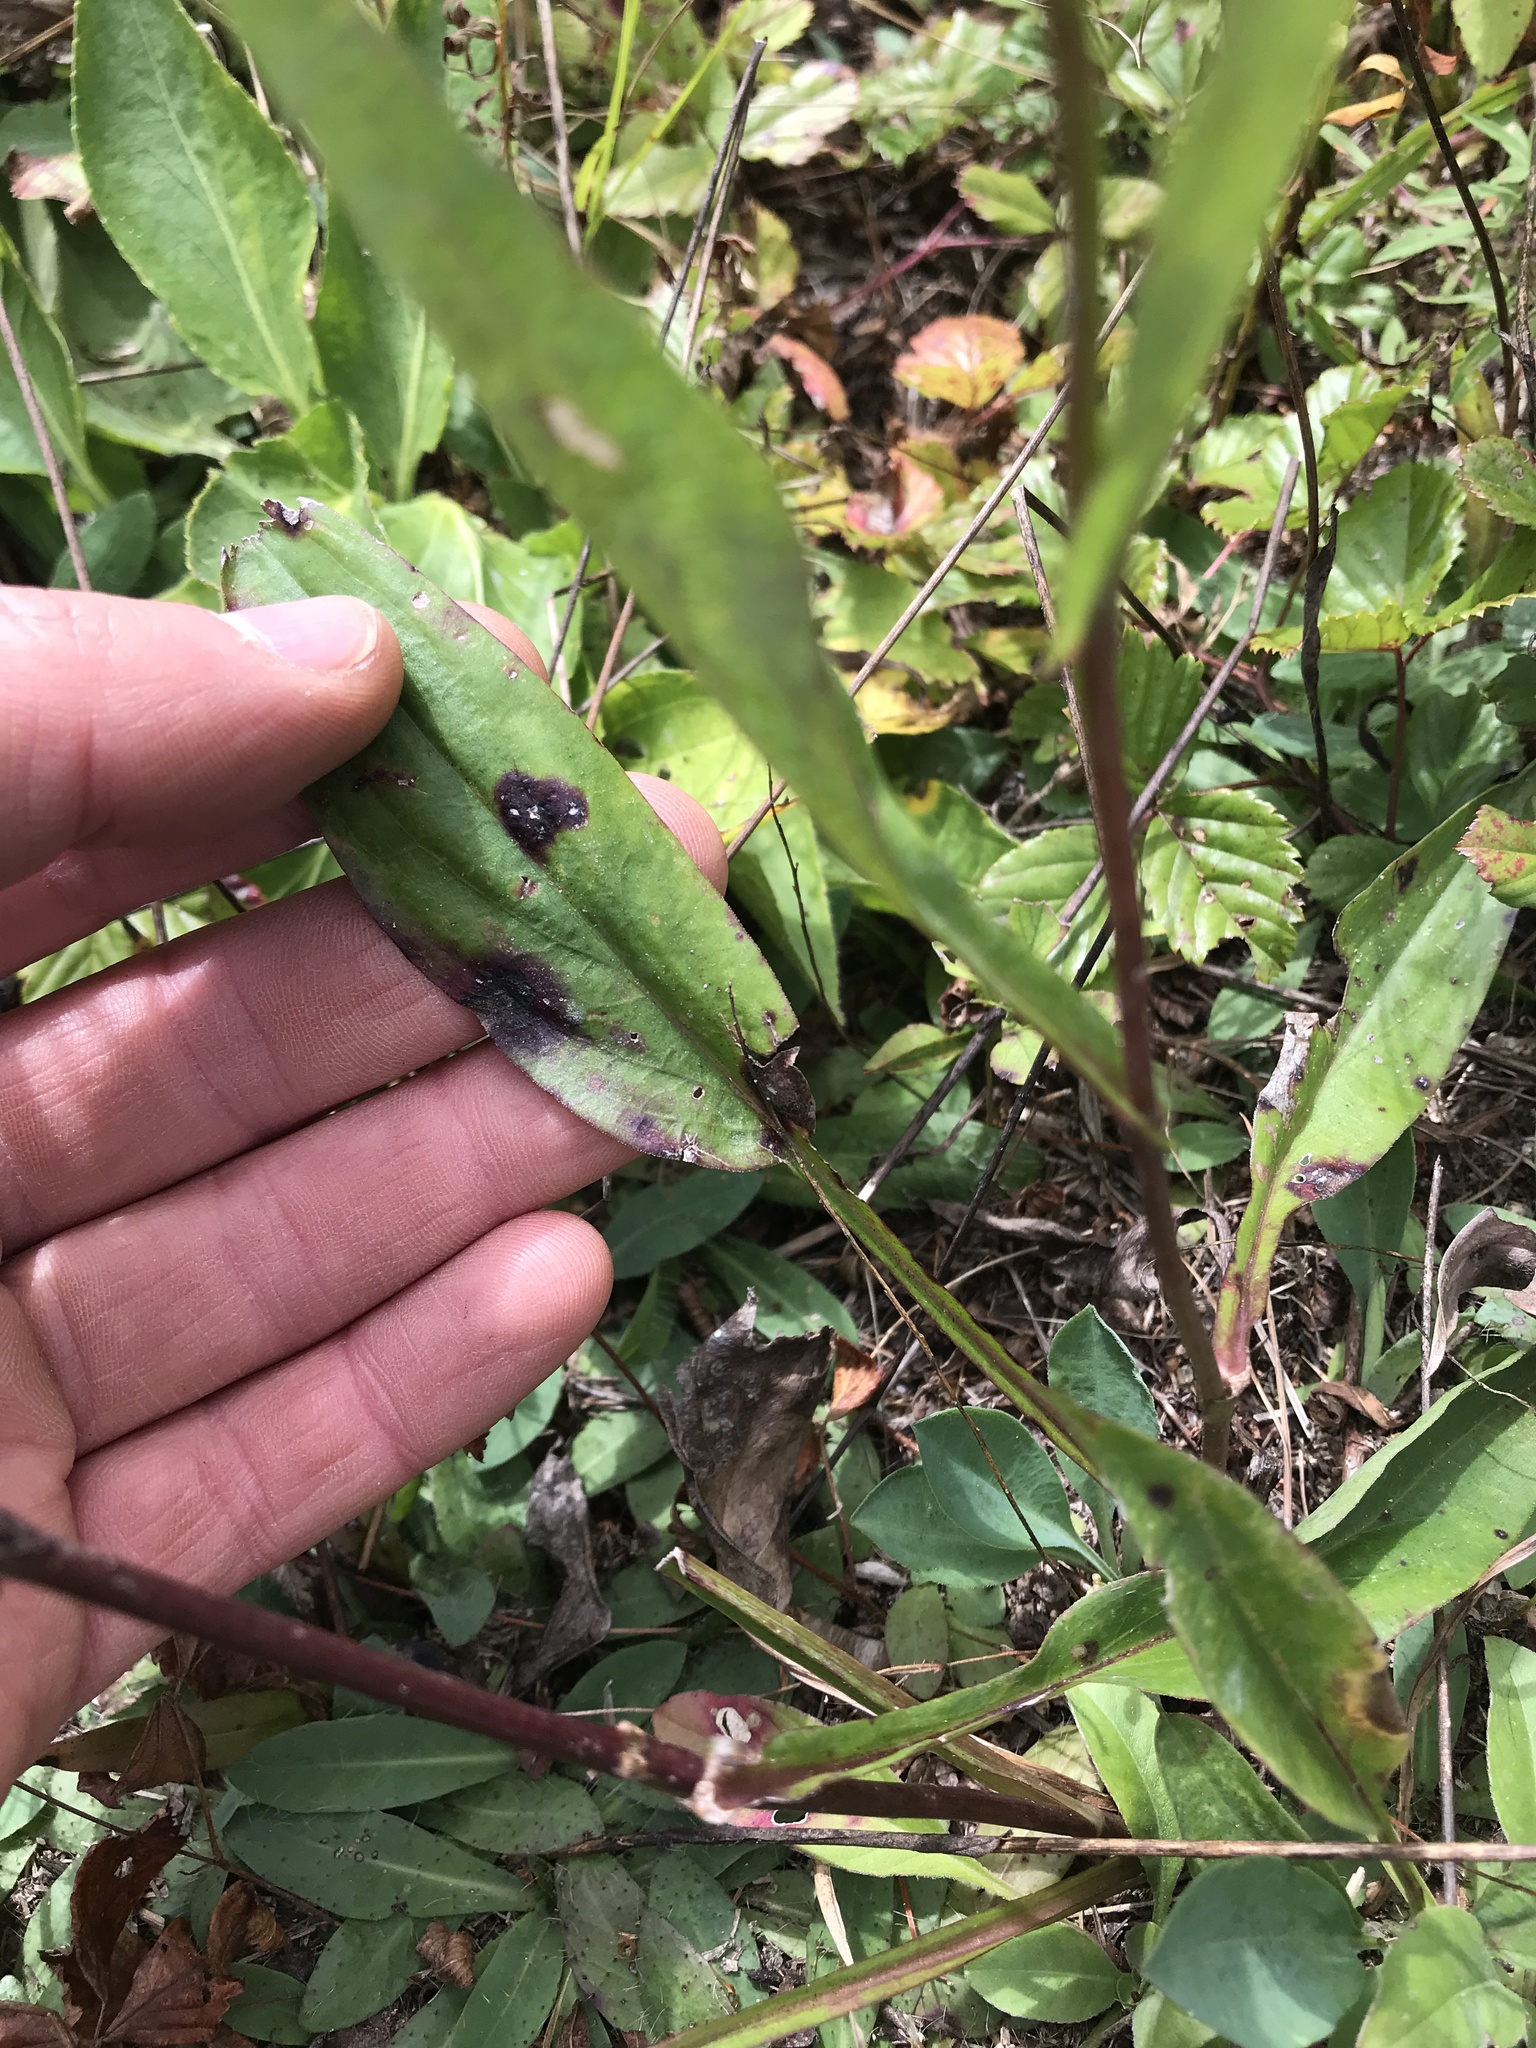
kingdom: Plantae
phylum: Tracheophyta
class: Magnoliopsida
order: Asterales
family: Asteraceae
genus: Symphyotrichum
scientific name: Symphyotrichum laeve
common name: Glaucous aster
